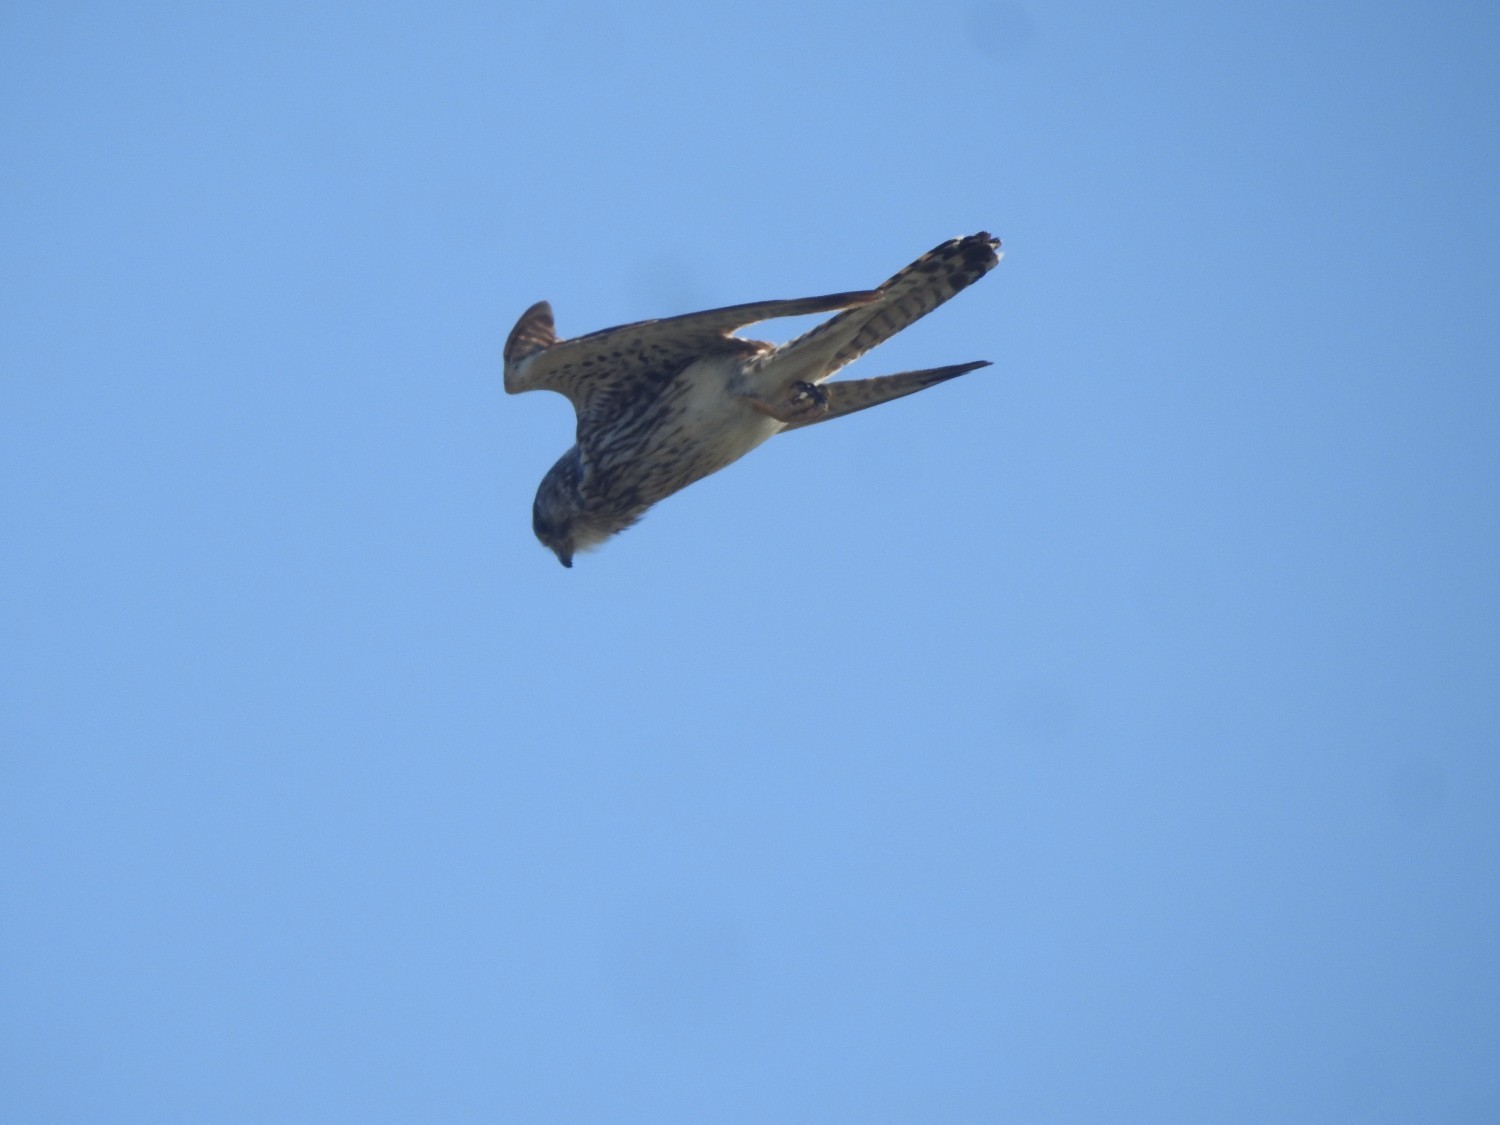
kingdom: Animalia
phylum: Chordata
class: Aves
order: Falconiformes
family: Falconidae
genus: Falco
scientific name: Falco tinnunculus
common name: Common kestrel
